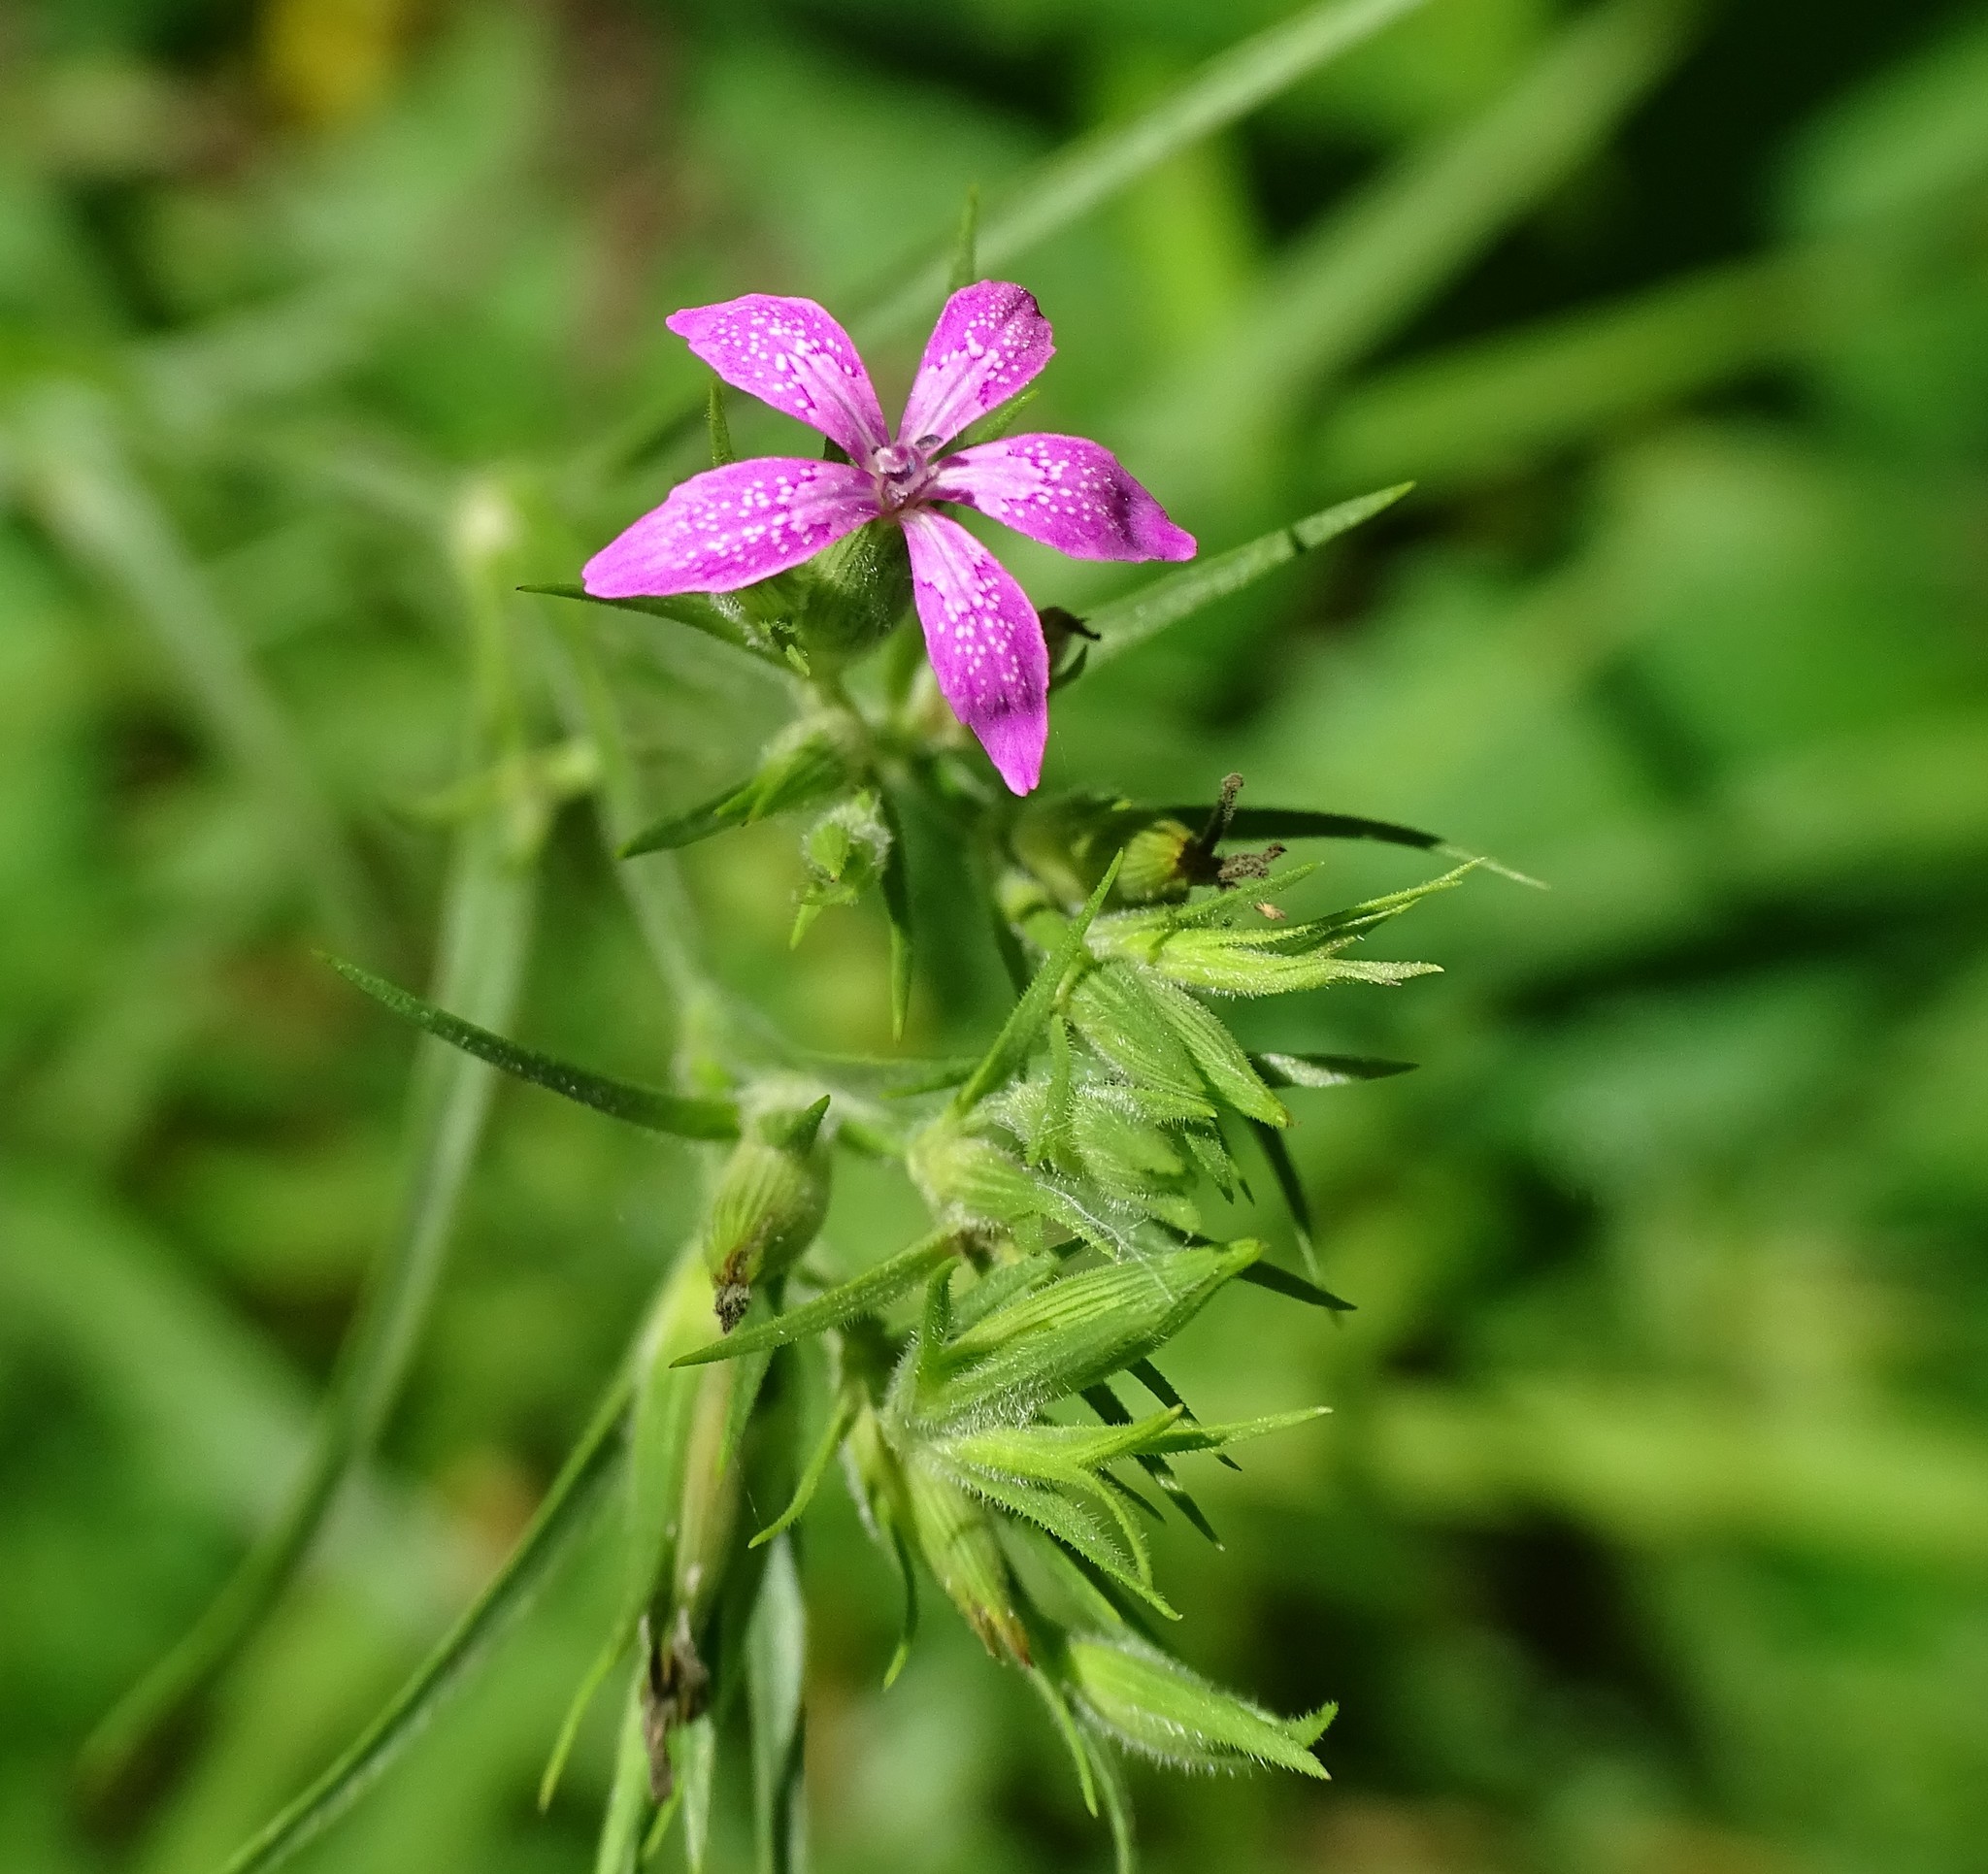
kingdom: Plantae
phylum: Tracheophyta
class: Magnoliopsida
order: Caryophyllales
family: Caryophyllaceae
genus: Dianthus
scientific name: Dianthus armeria
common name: Deptford pink
